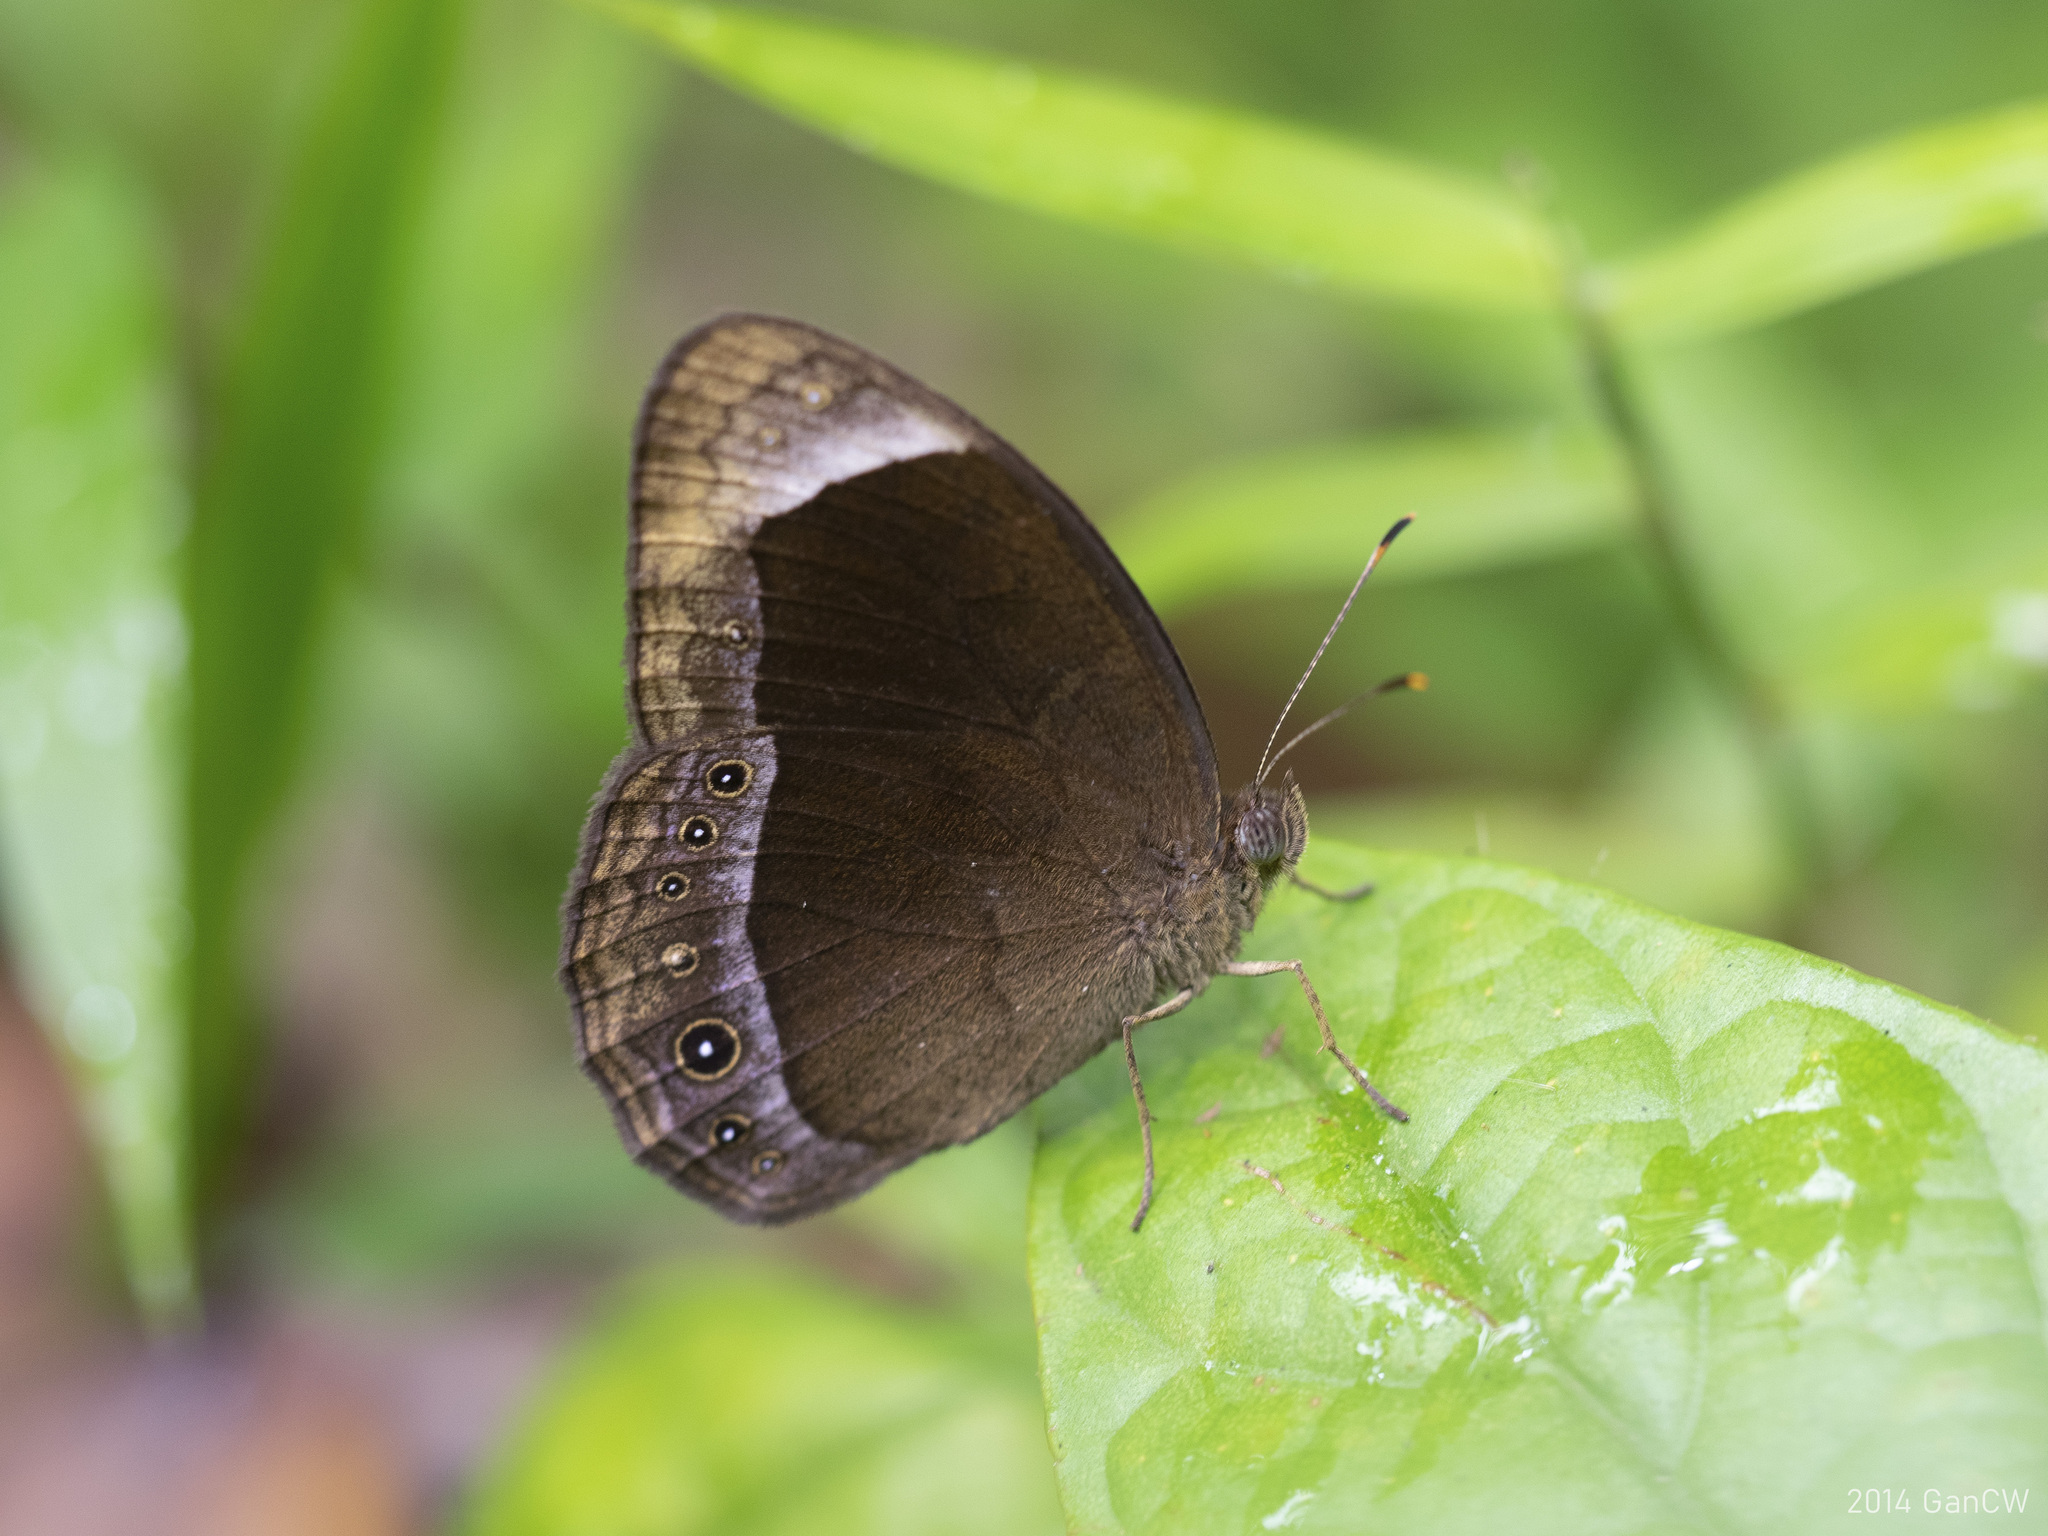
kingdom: Animalia
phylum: Arthropoda
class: Insecta
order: Lepidoptera
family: Nymphalidae
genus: Mycalesis
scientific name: Mycalesis anaxias
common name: White-bar bushbrown
